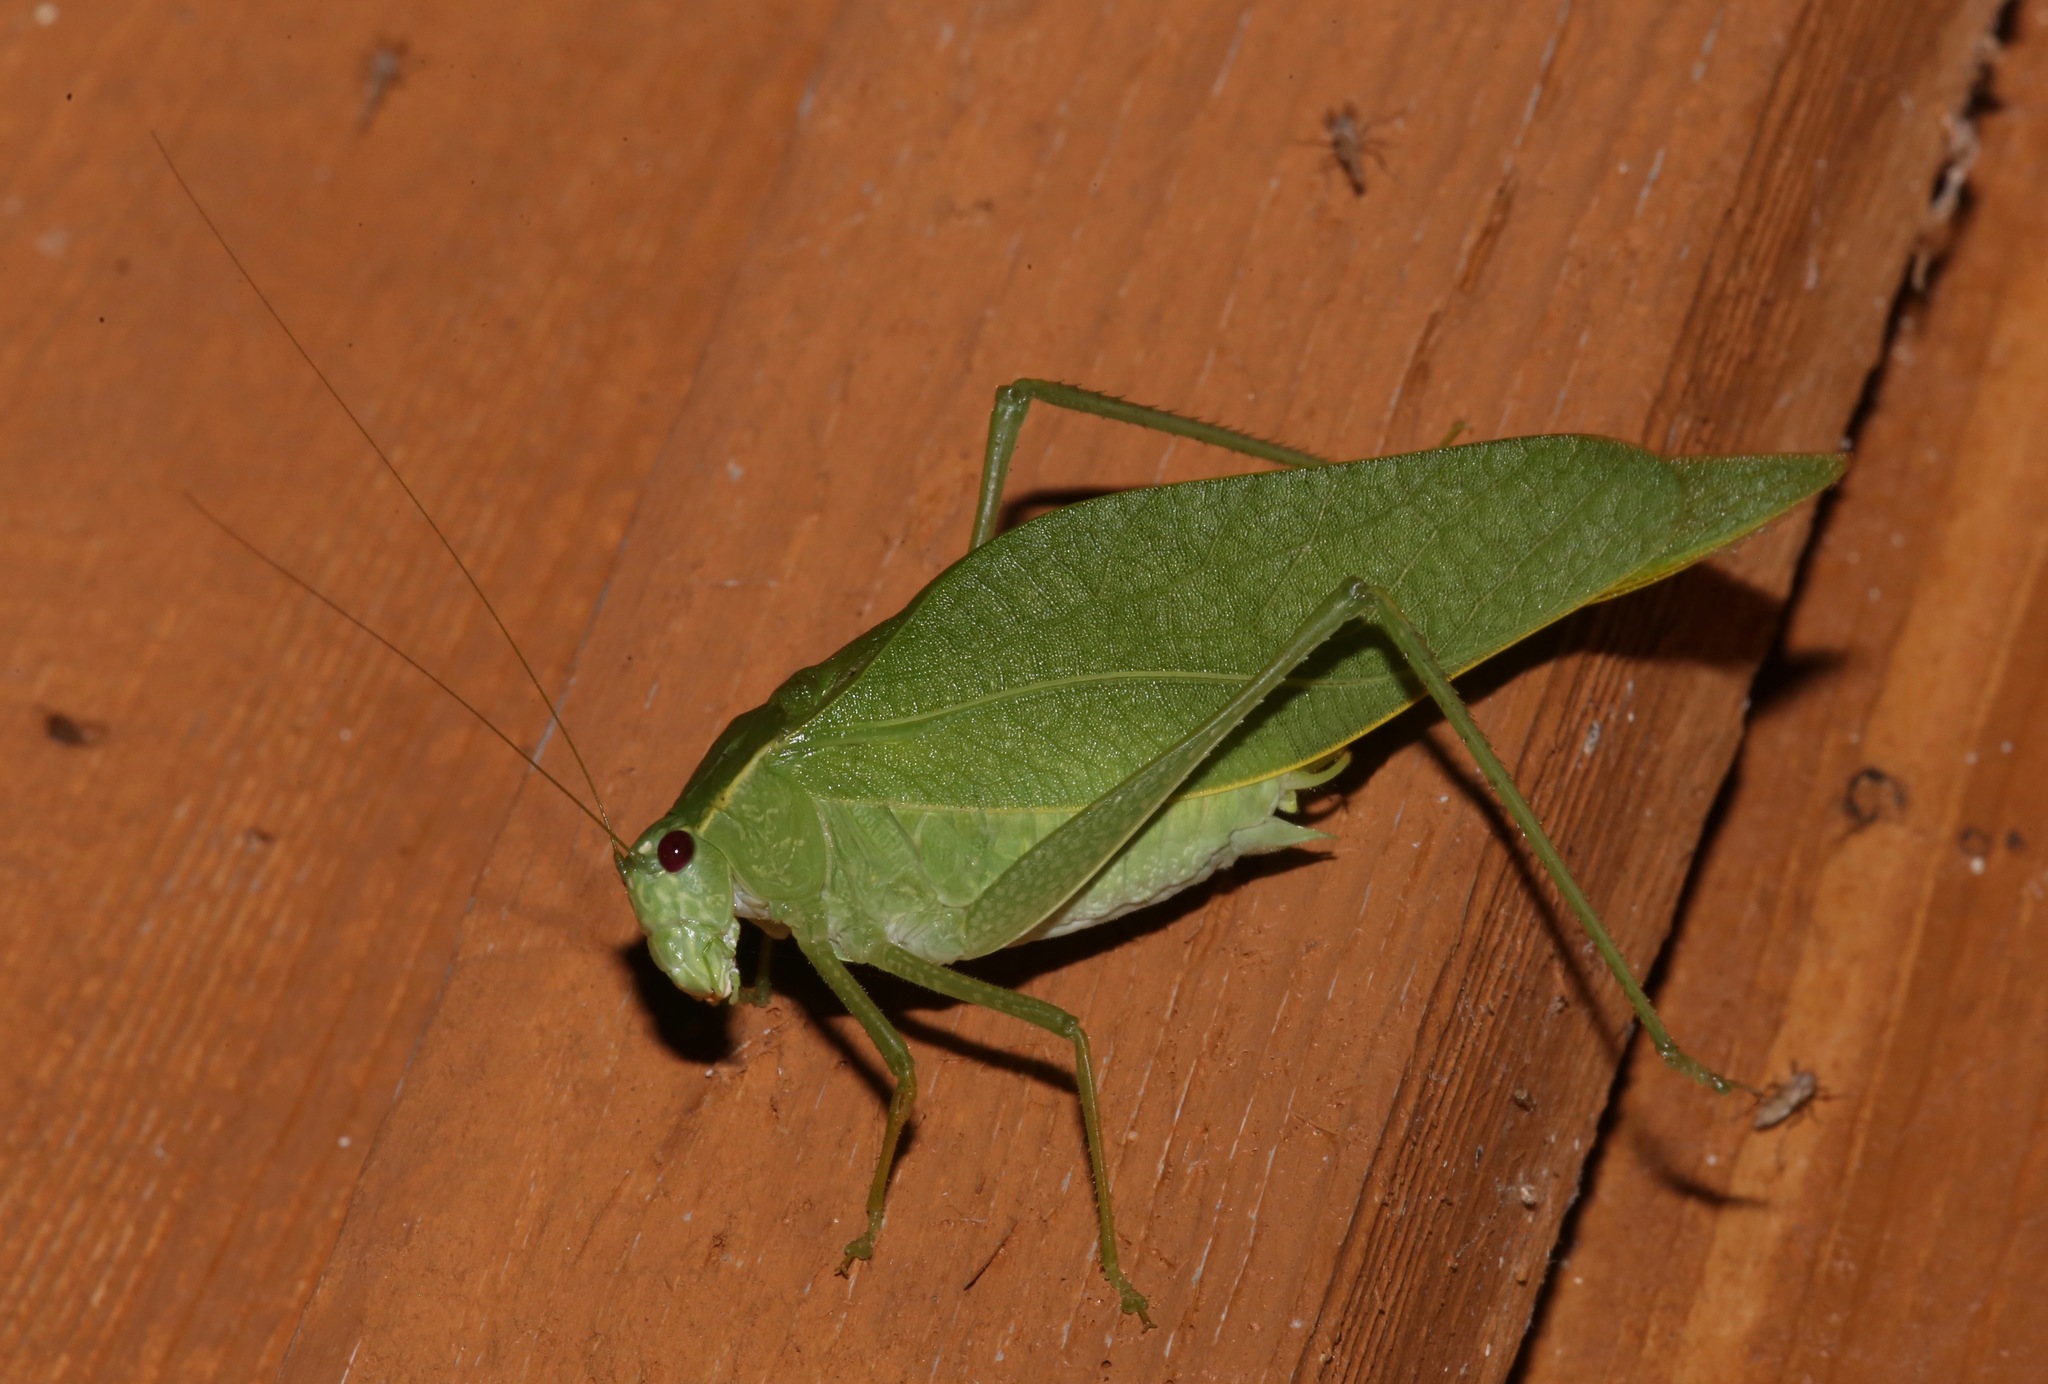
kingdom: Animalia
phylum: Arthropoda
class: Insecta
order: Orthoptera
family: Tettigoniidae
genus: Microcentrum
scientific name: Microcentrum rhombifolium
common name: Broad-winged katydid
